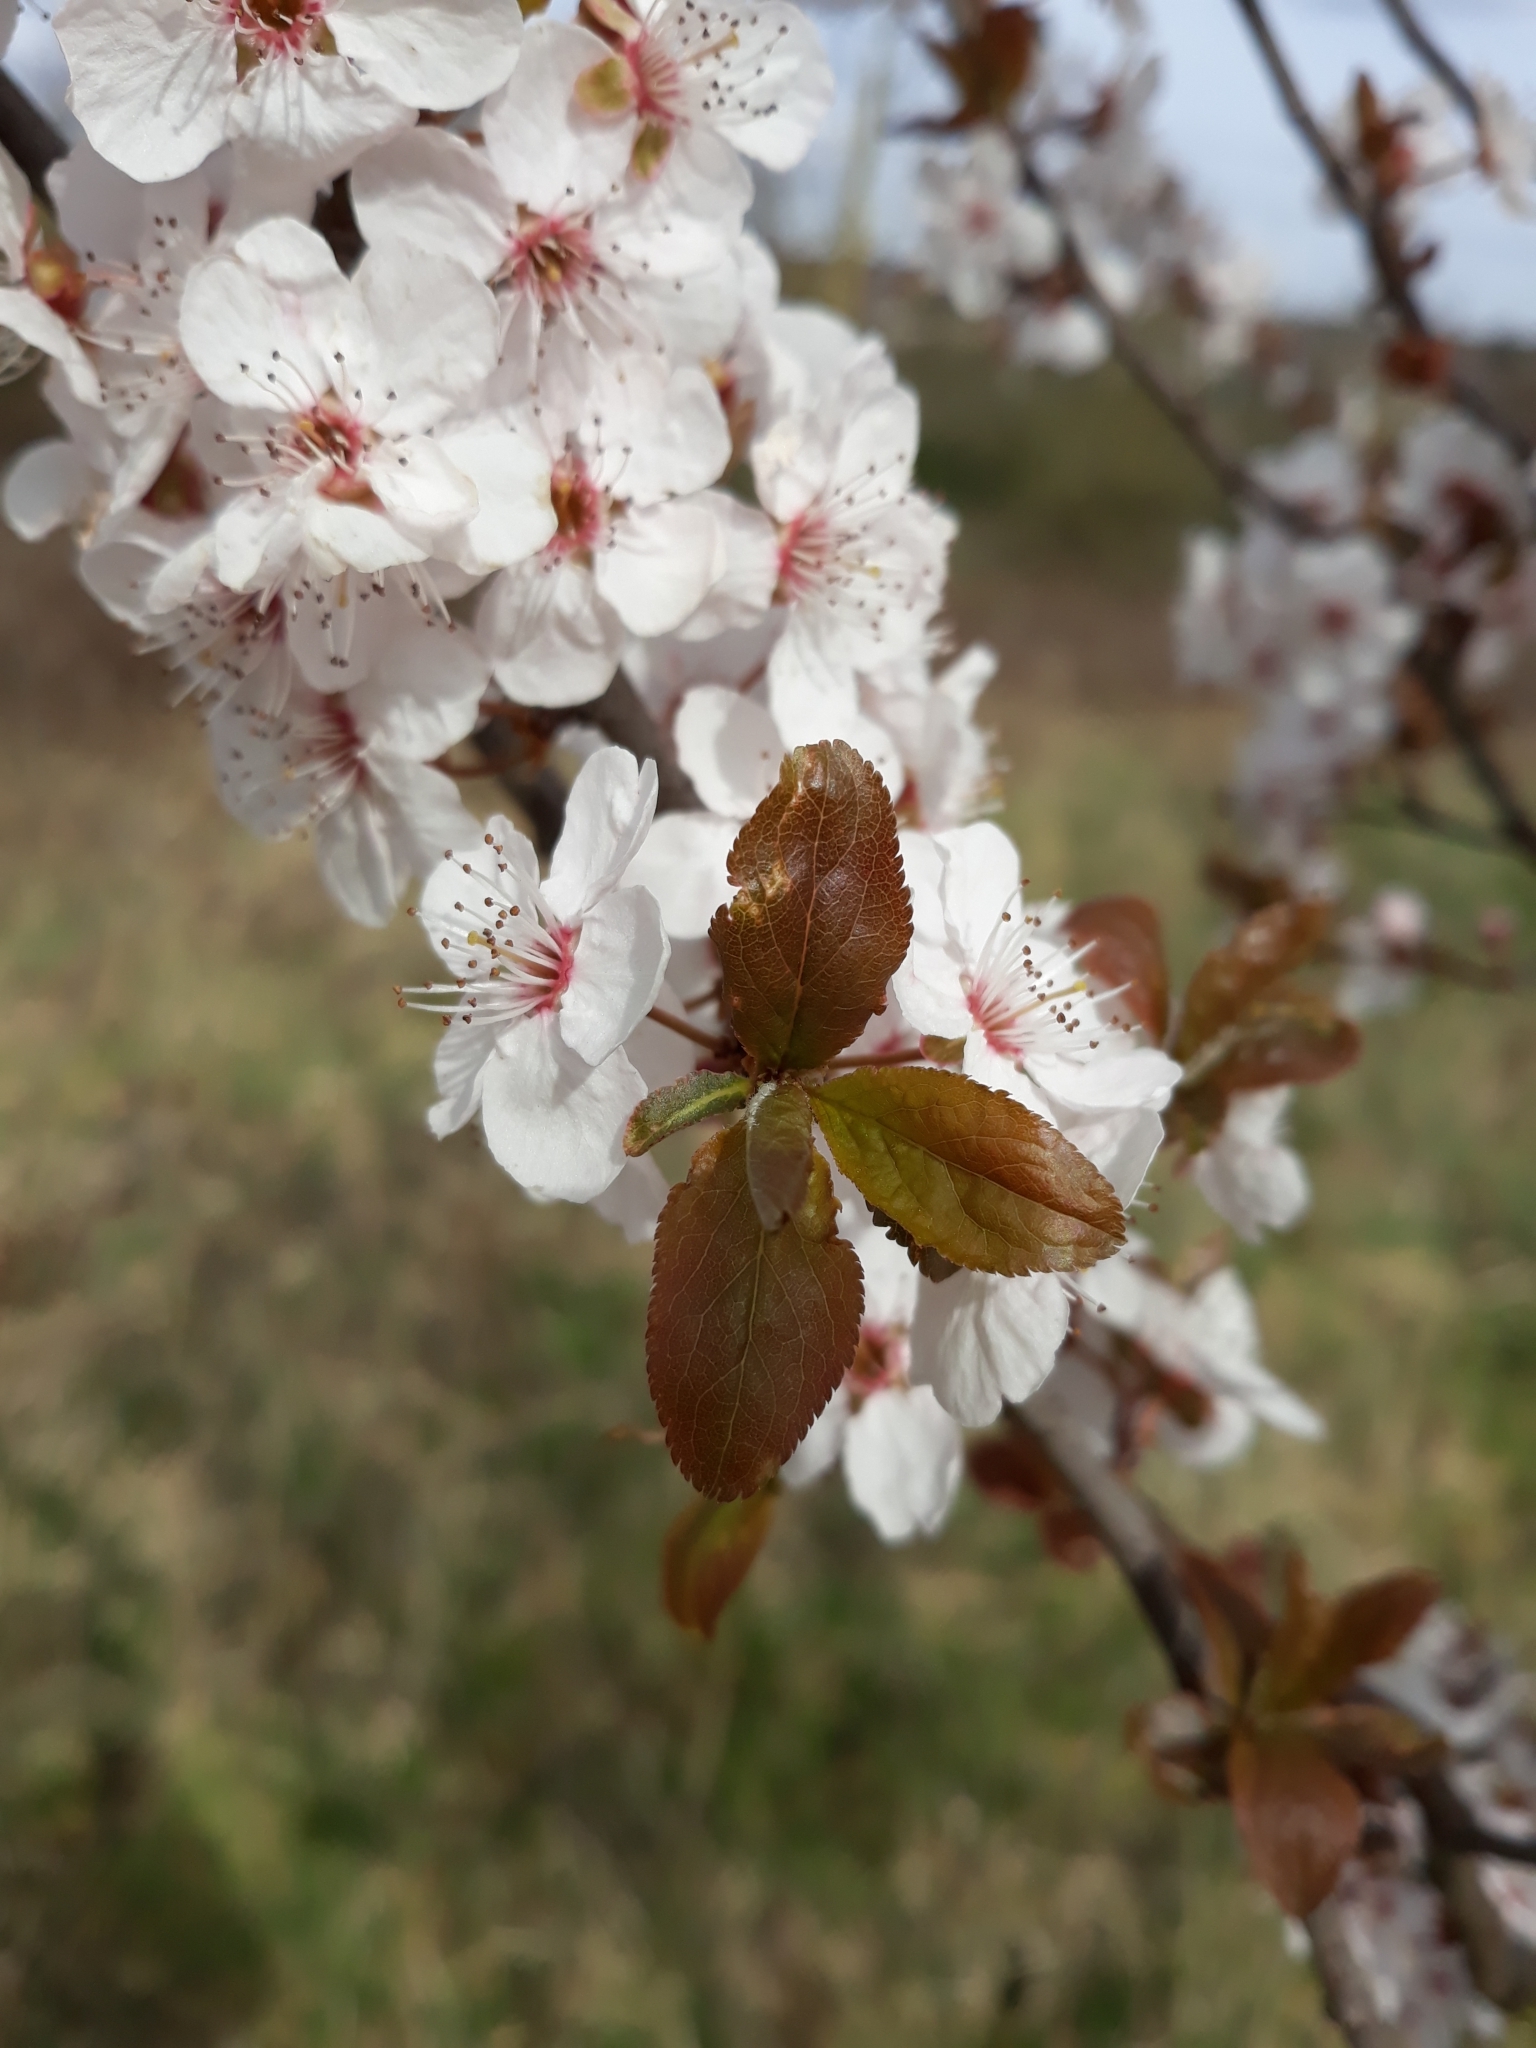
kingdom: Plantae
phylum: Tracheophyta
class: Magnoliopsida
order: Rosales
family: Rosaceae
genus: Prunus
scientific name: Prunus cerasifera
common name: Cherry plum
